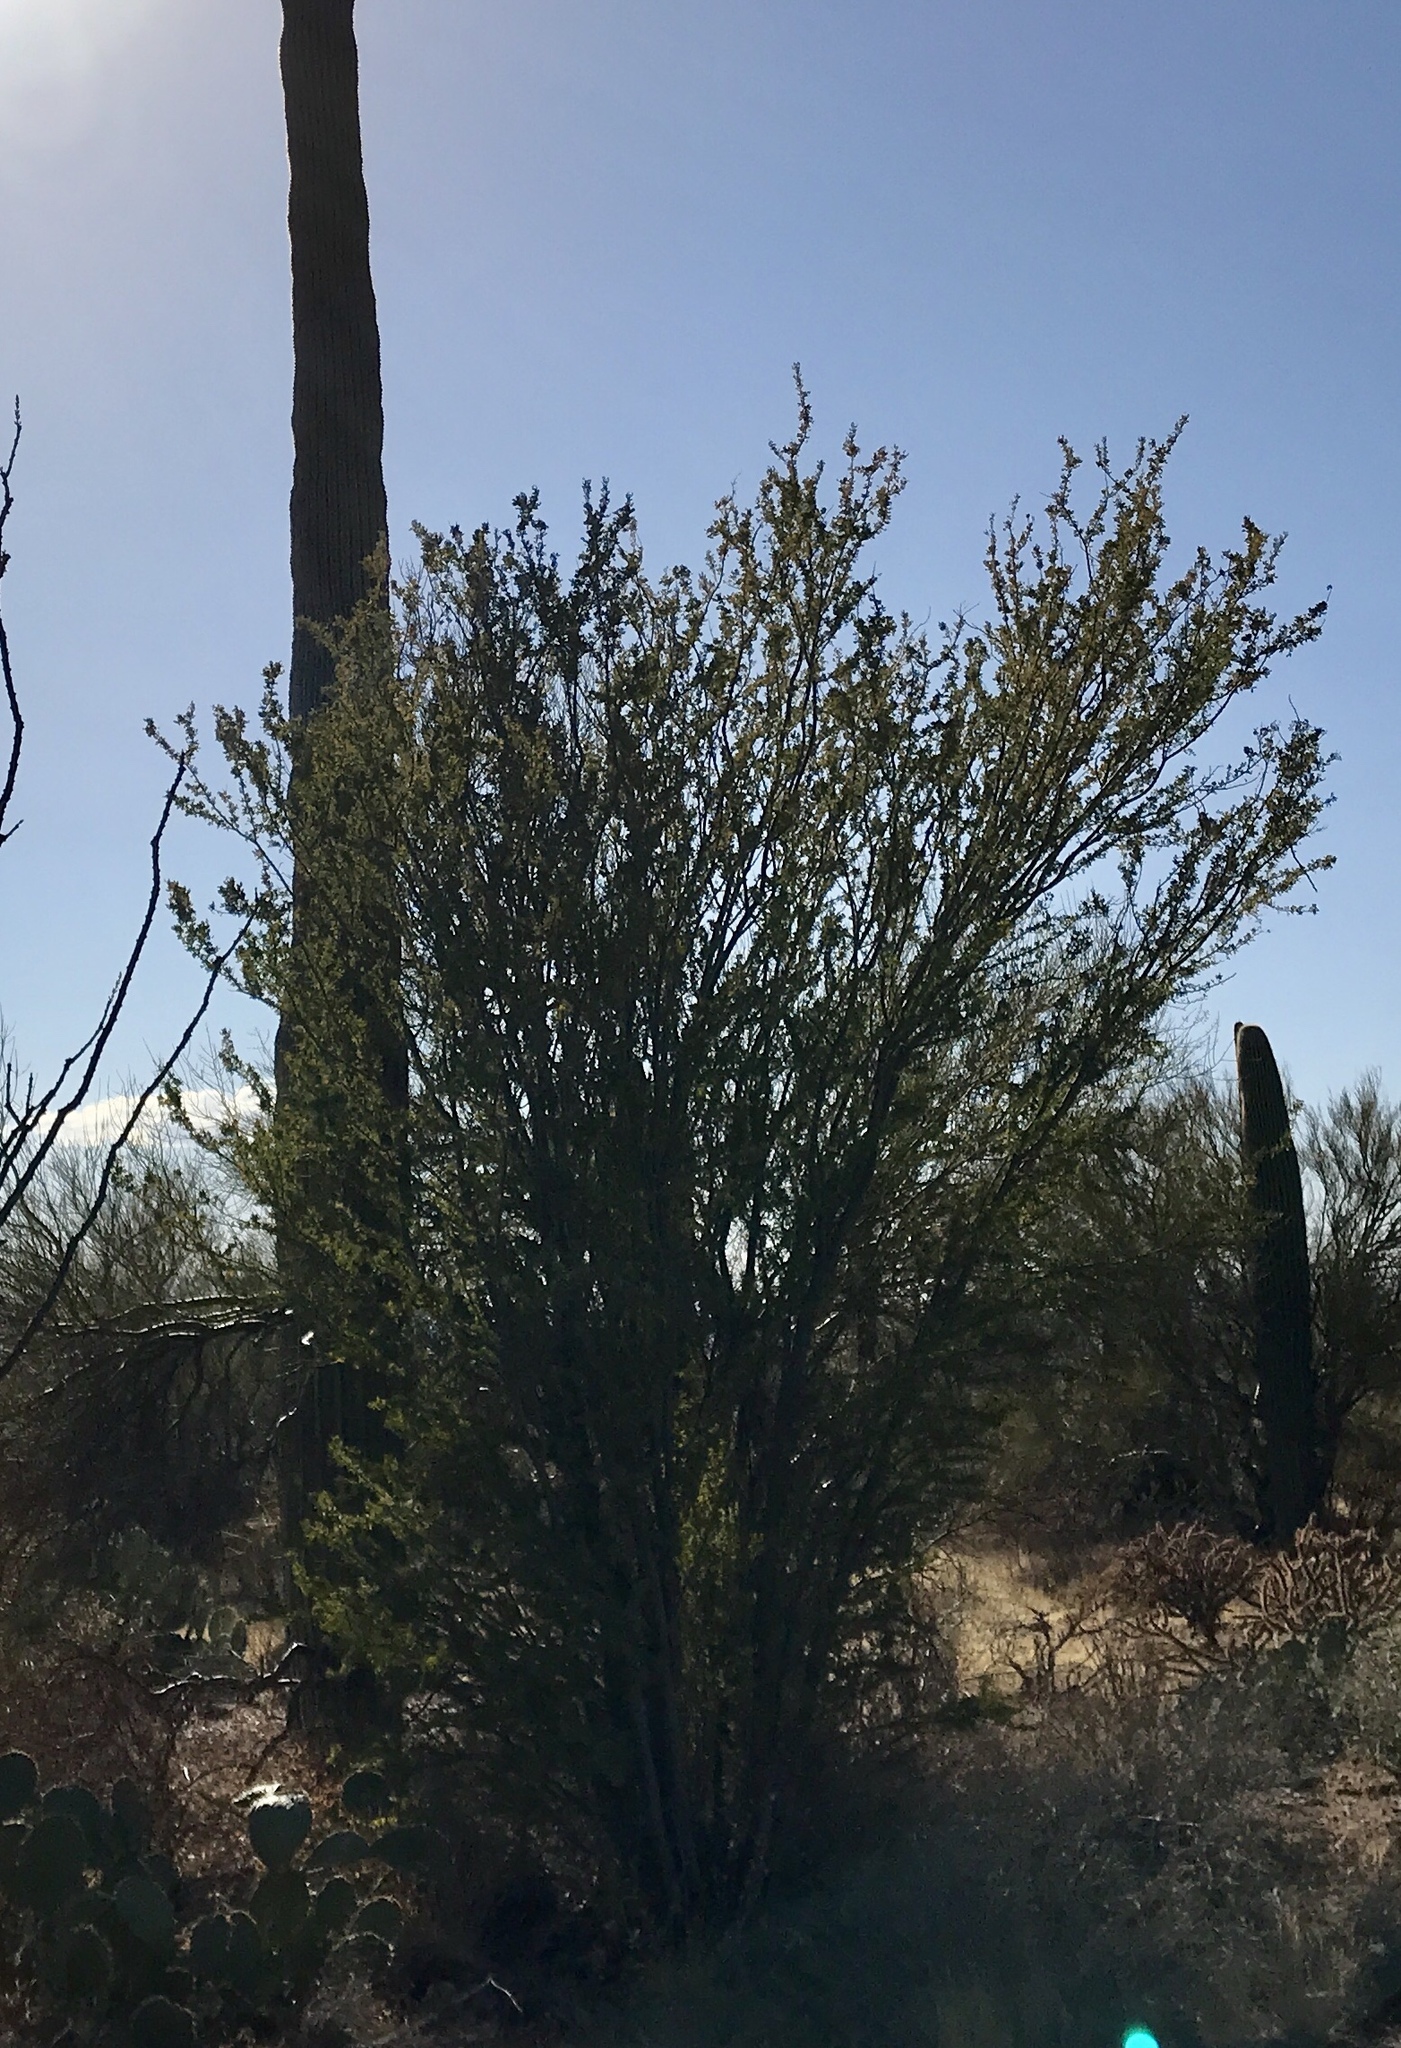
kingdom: Plantae
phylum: Tracheophyta
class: Magnoliopsida
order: Fabales
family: Fabaceae
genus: Olneya
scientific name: Olneya tesota
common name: Desert ironwood
